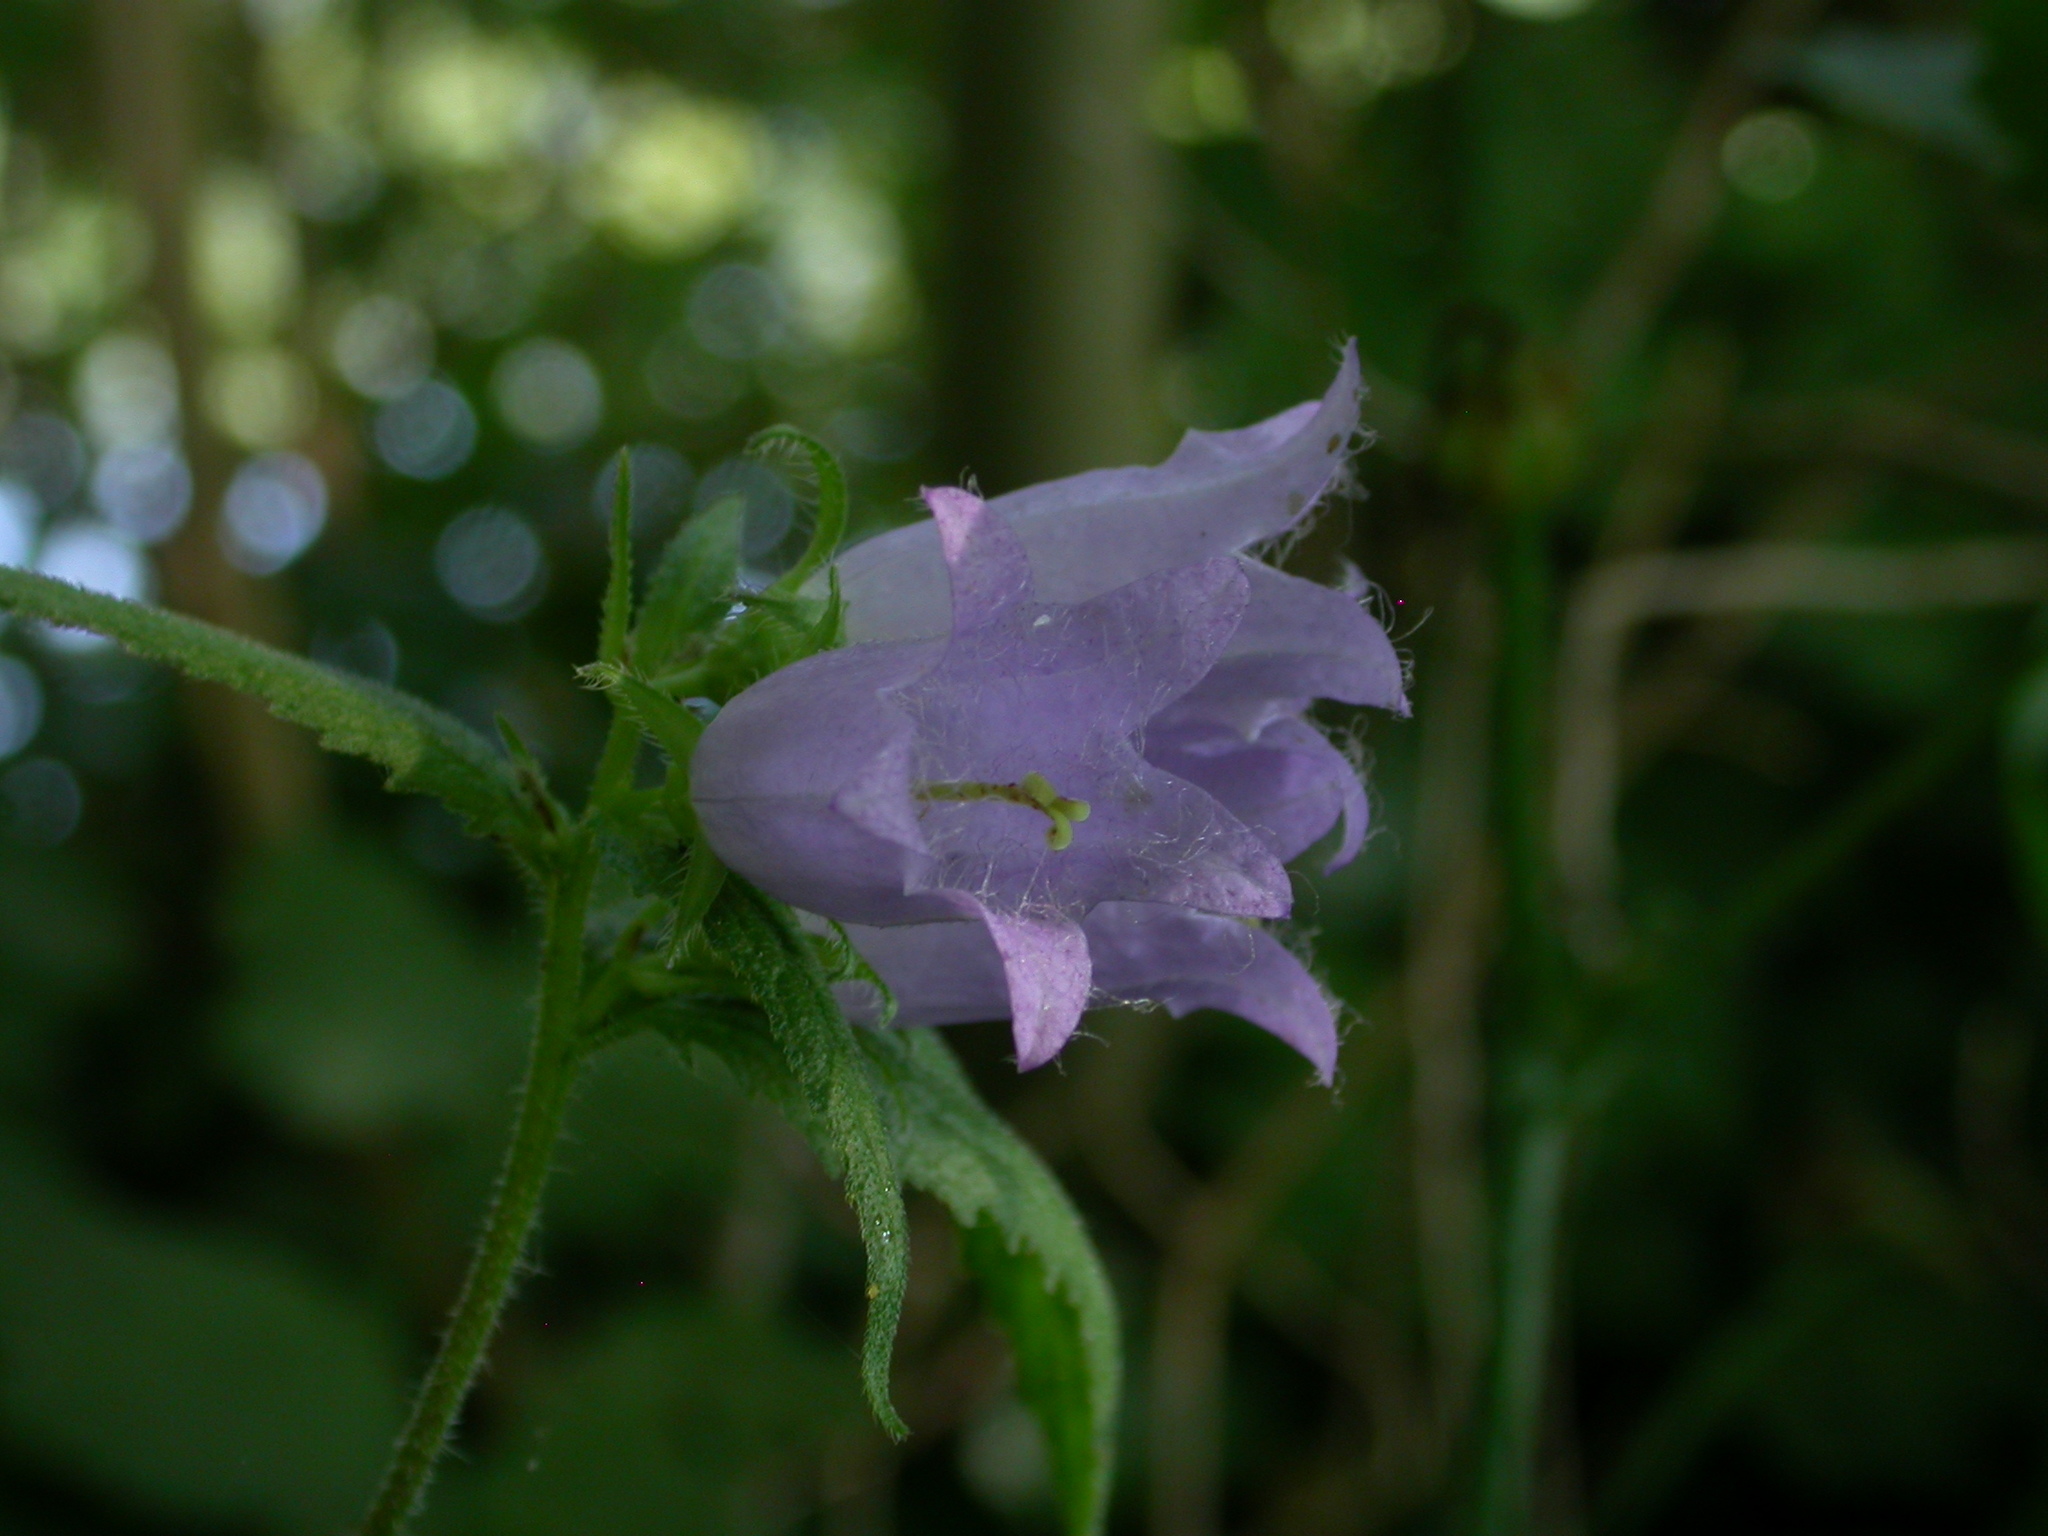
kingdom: Plantae
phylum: Tracheophyta
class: Magnoliopsida
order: Asterales
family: Campanulaceae
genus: Campanula
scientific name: Campanula trachelium
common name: Nettle-leaved bellflower
